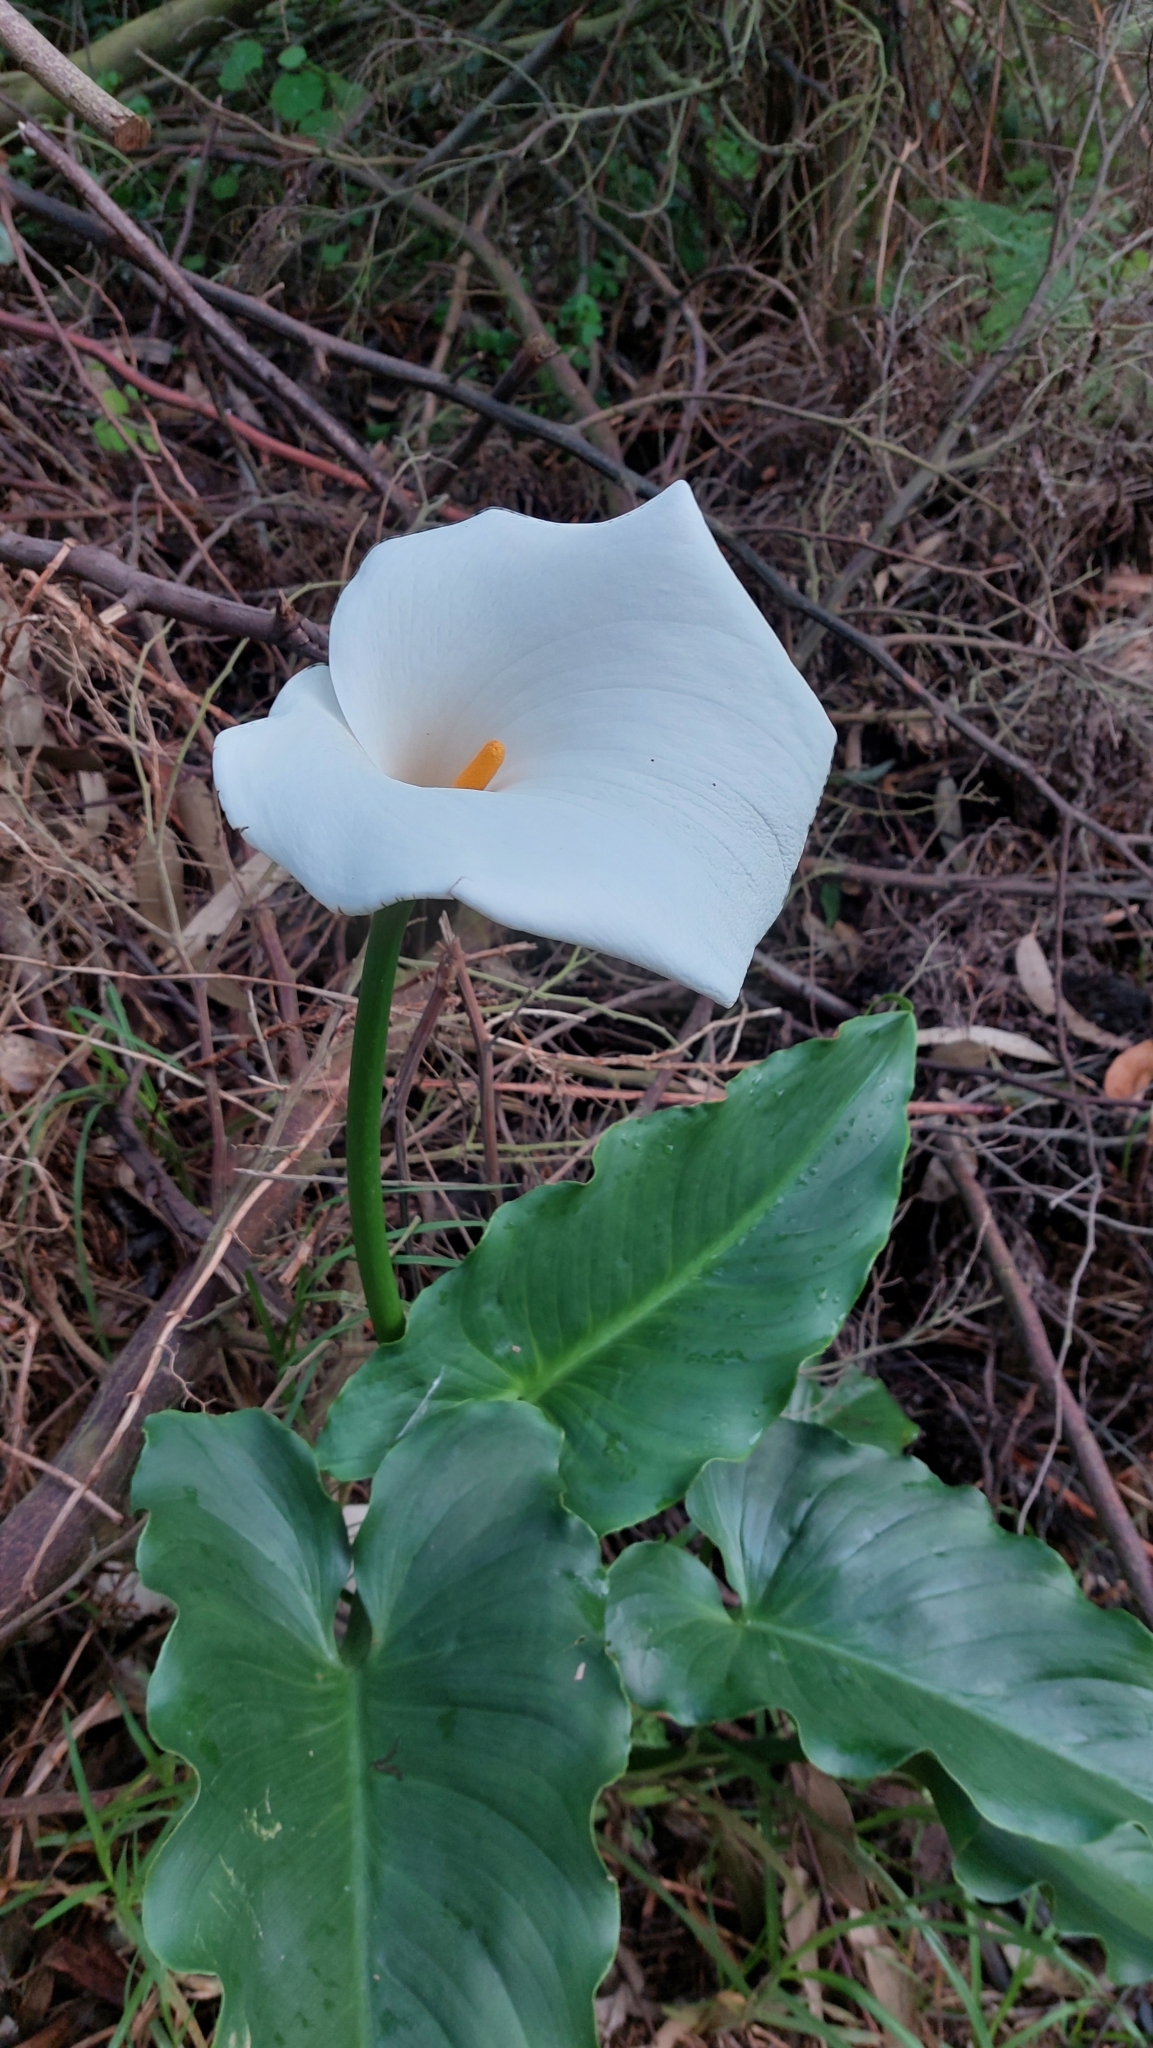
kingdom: Plantae
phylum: Tracheophyta
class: Liliopsida
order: Alismatales
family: Araceae
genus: Zantedeschia
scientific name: Zantedeschia aethiopica
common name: Altar-lily
